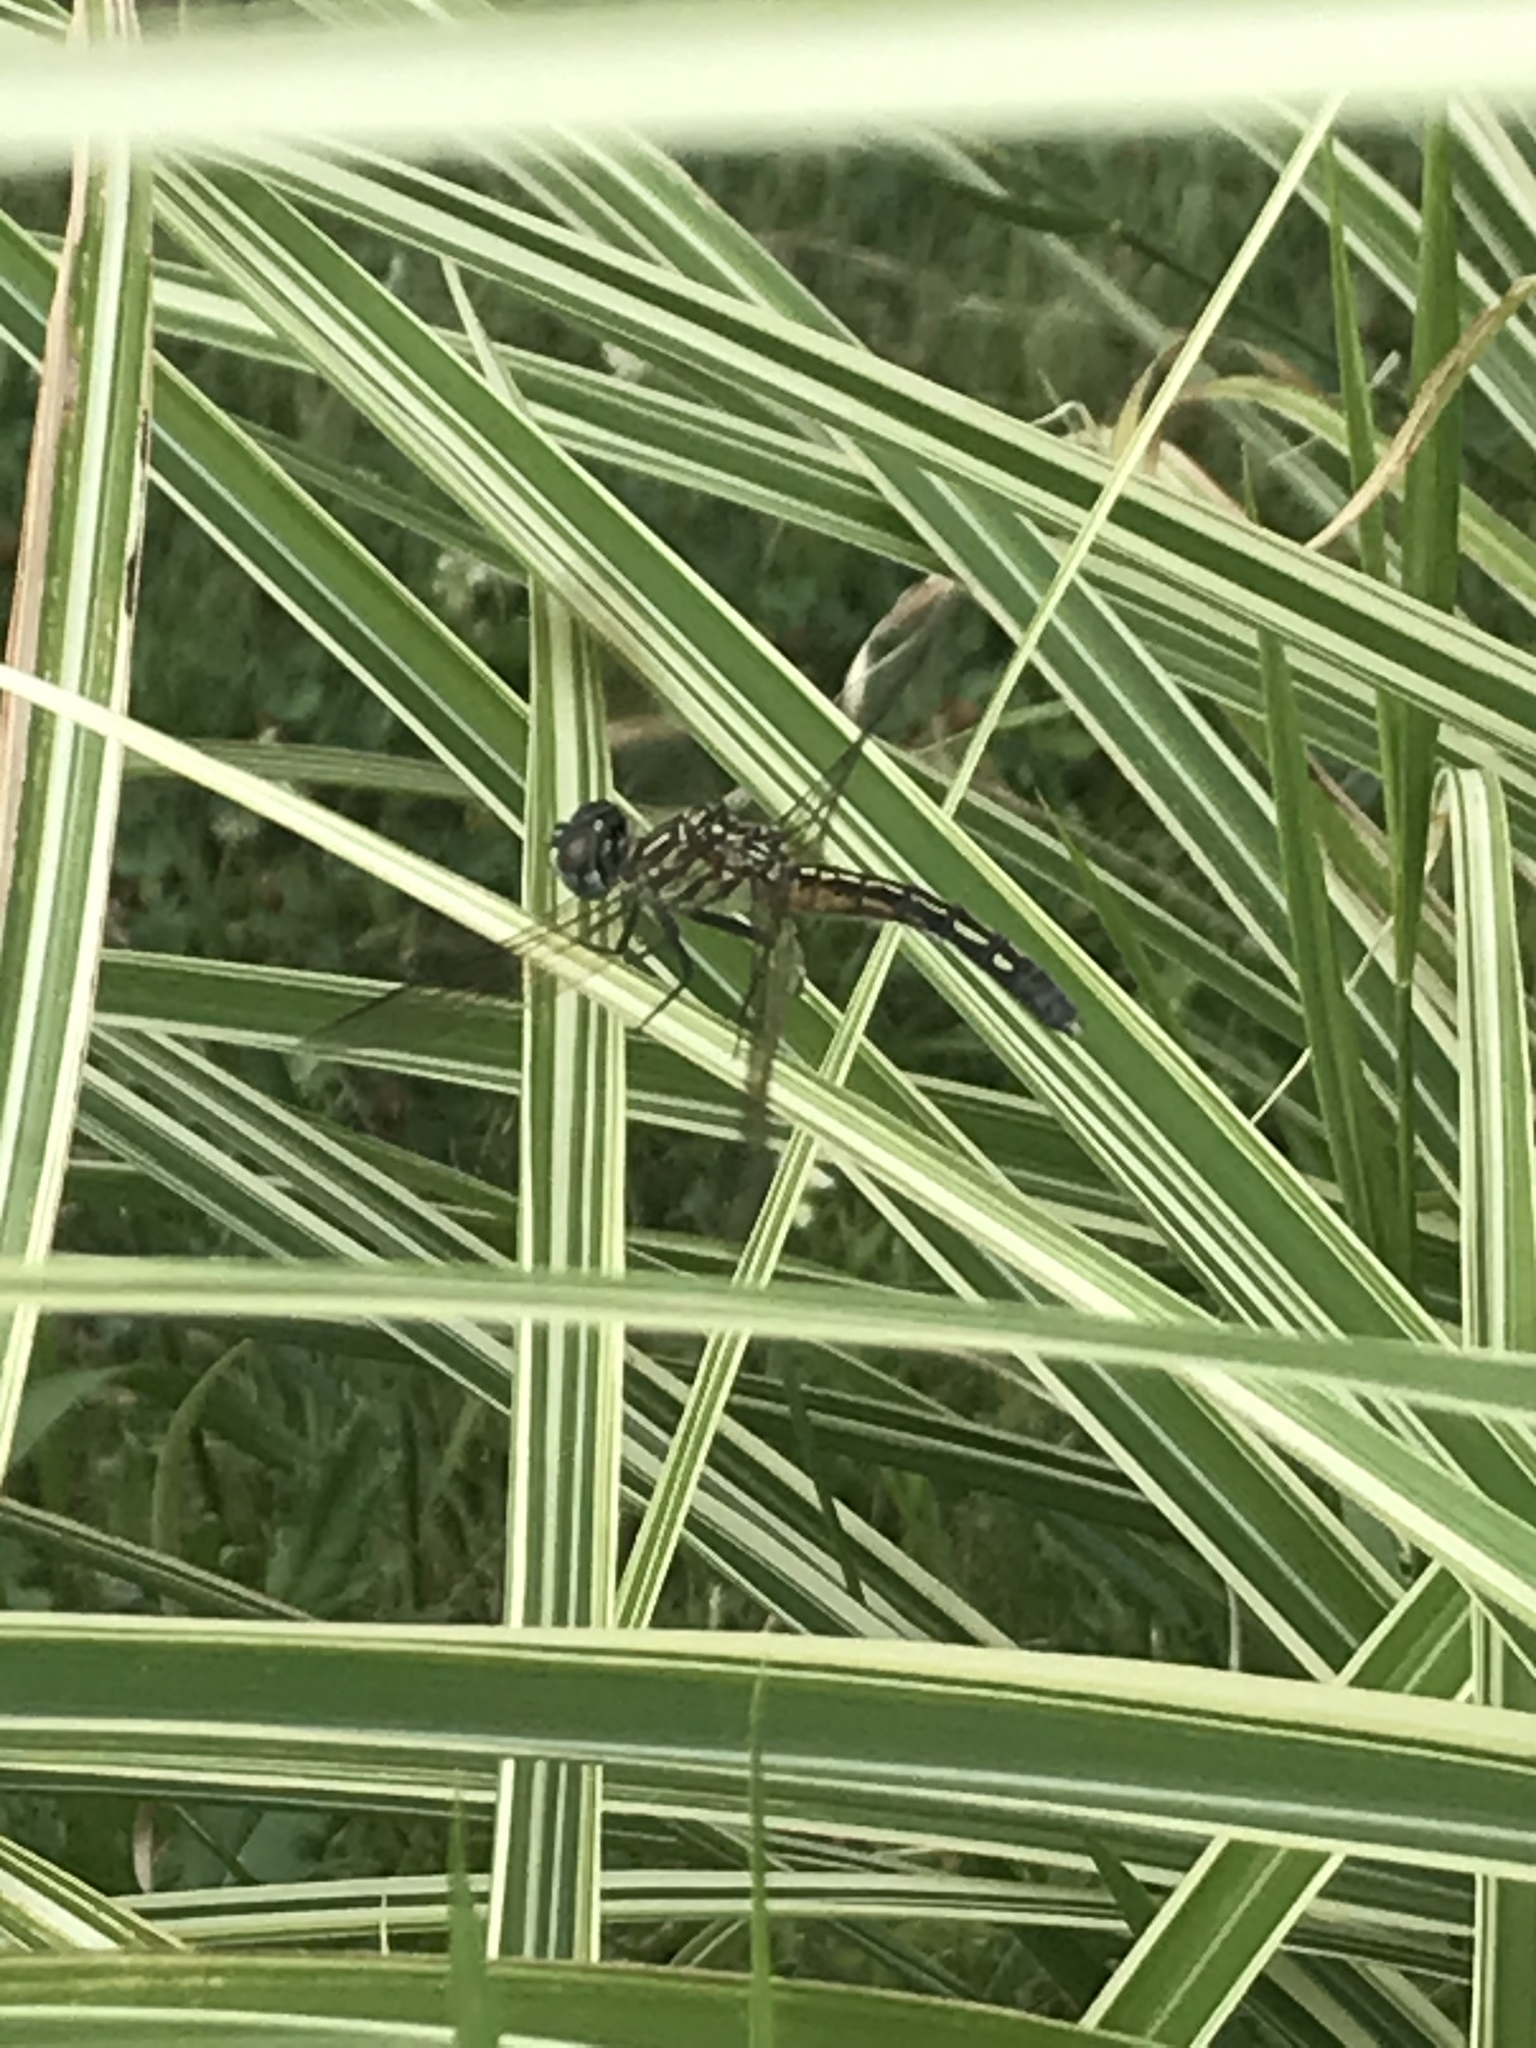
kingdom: Animalia
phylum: Arthropoda
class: Insecta
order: Odonata
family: Libellulidae
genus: Pachydiplax
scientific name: Pachydiplax longipennis
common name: Blue dasher
